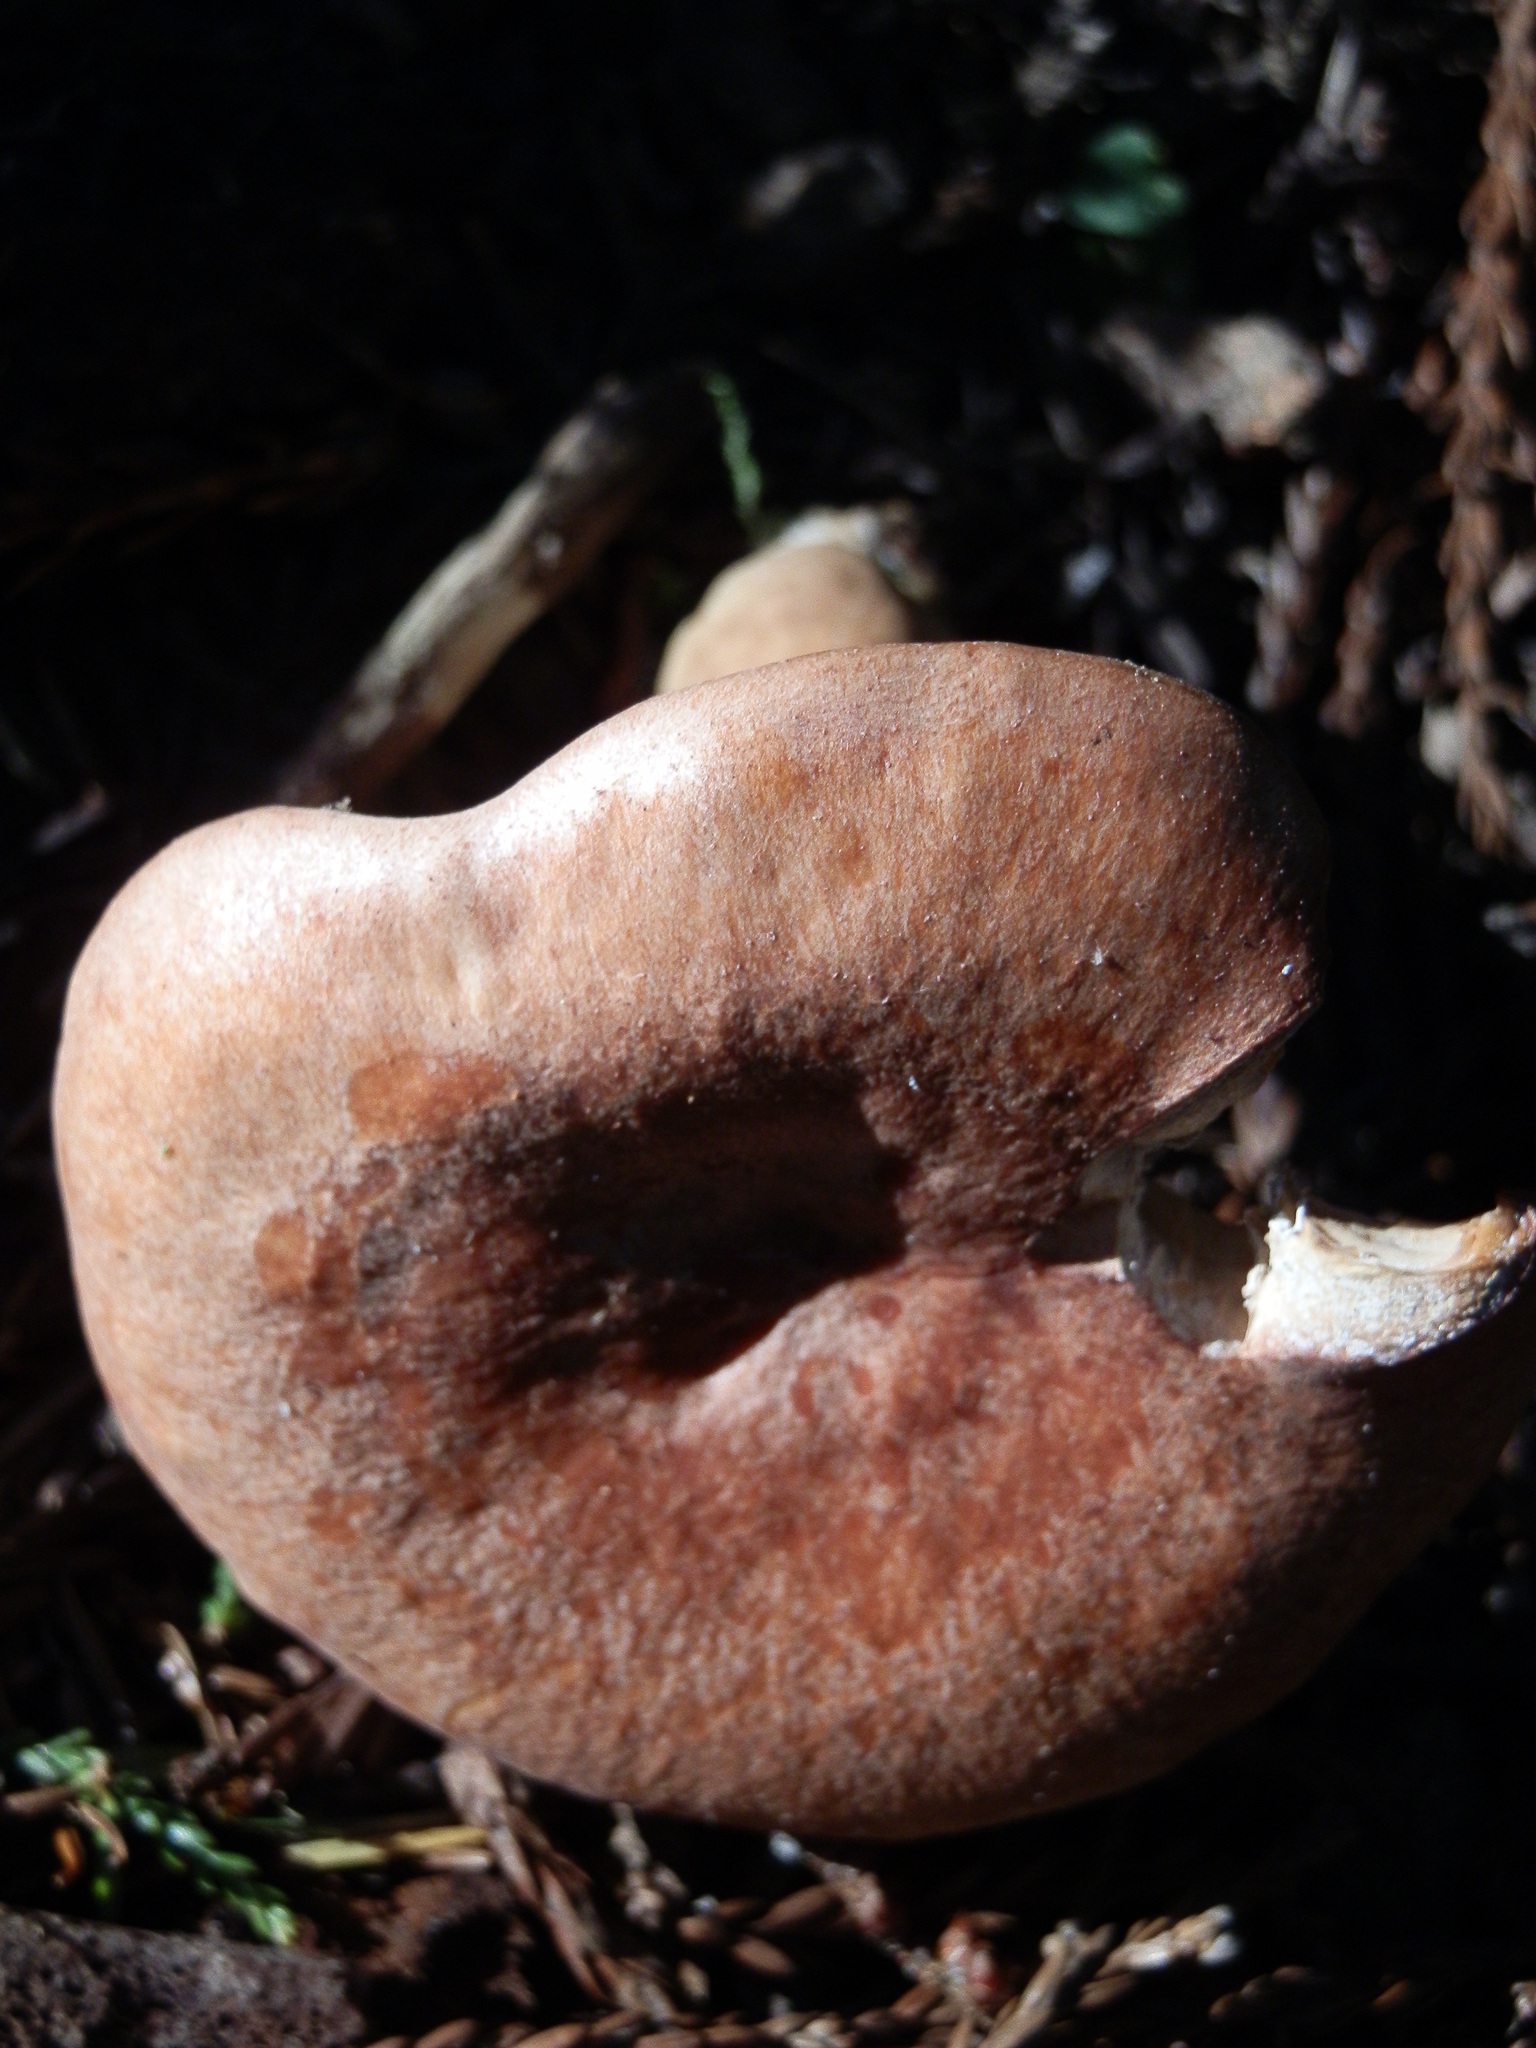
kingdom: Fungi
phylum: Basidiomycota
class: Agaricomycetes
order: Russulales
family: Russulaceae
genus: Lactarius
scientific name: Lactarius xanthogalactus
